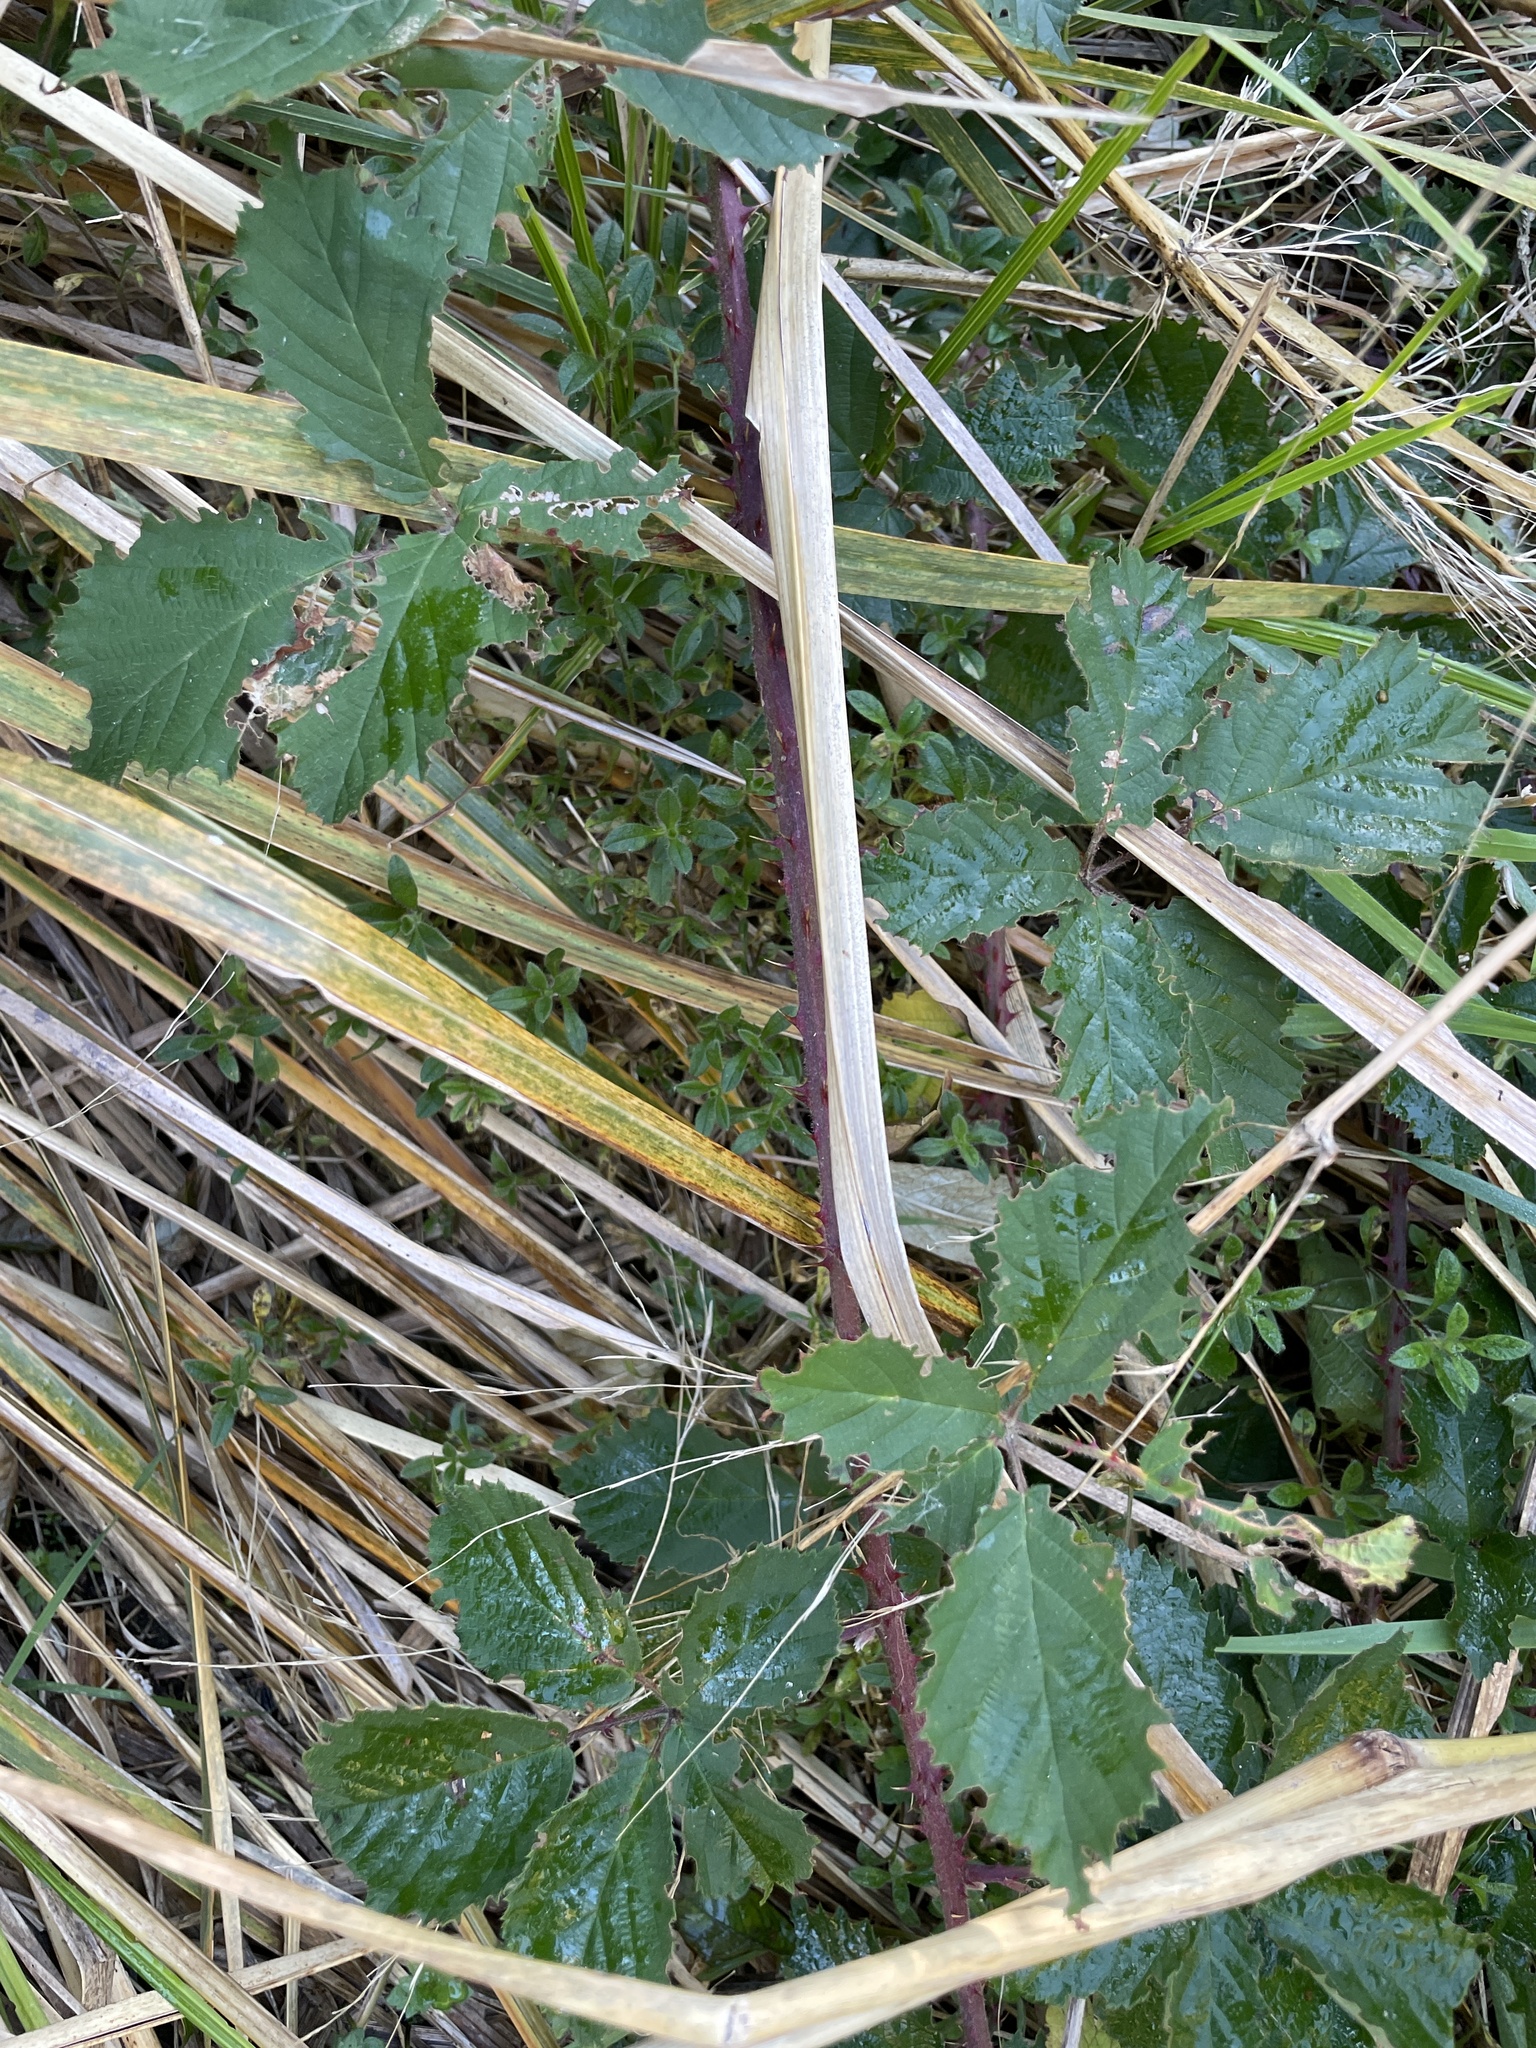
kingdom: Plantae
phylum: Tracheophyta
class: Magnoliopsida
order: Rosales
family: Rosaceae
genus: Rubus
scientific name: Rubus fruticosus
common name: Blackberry, bramble
